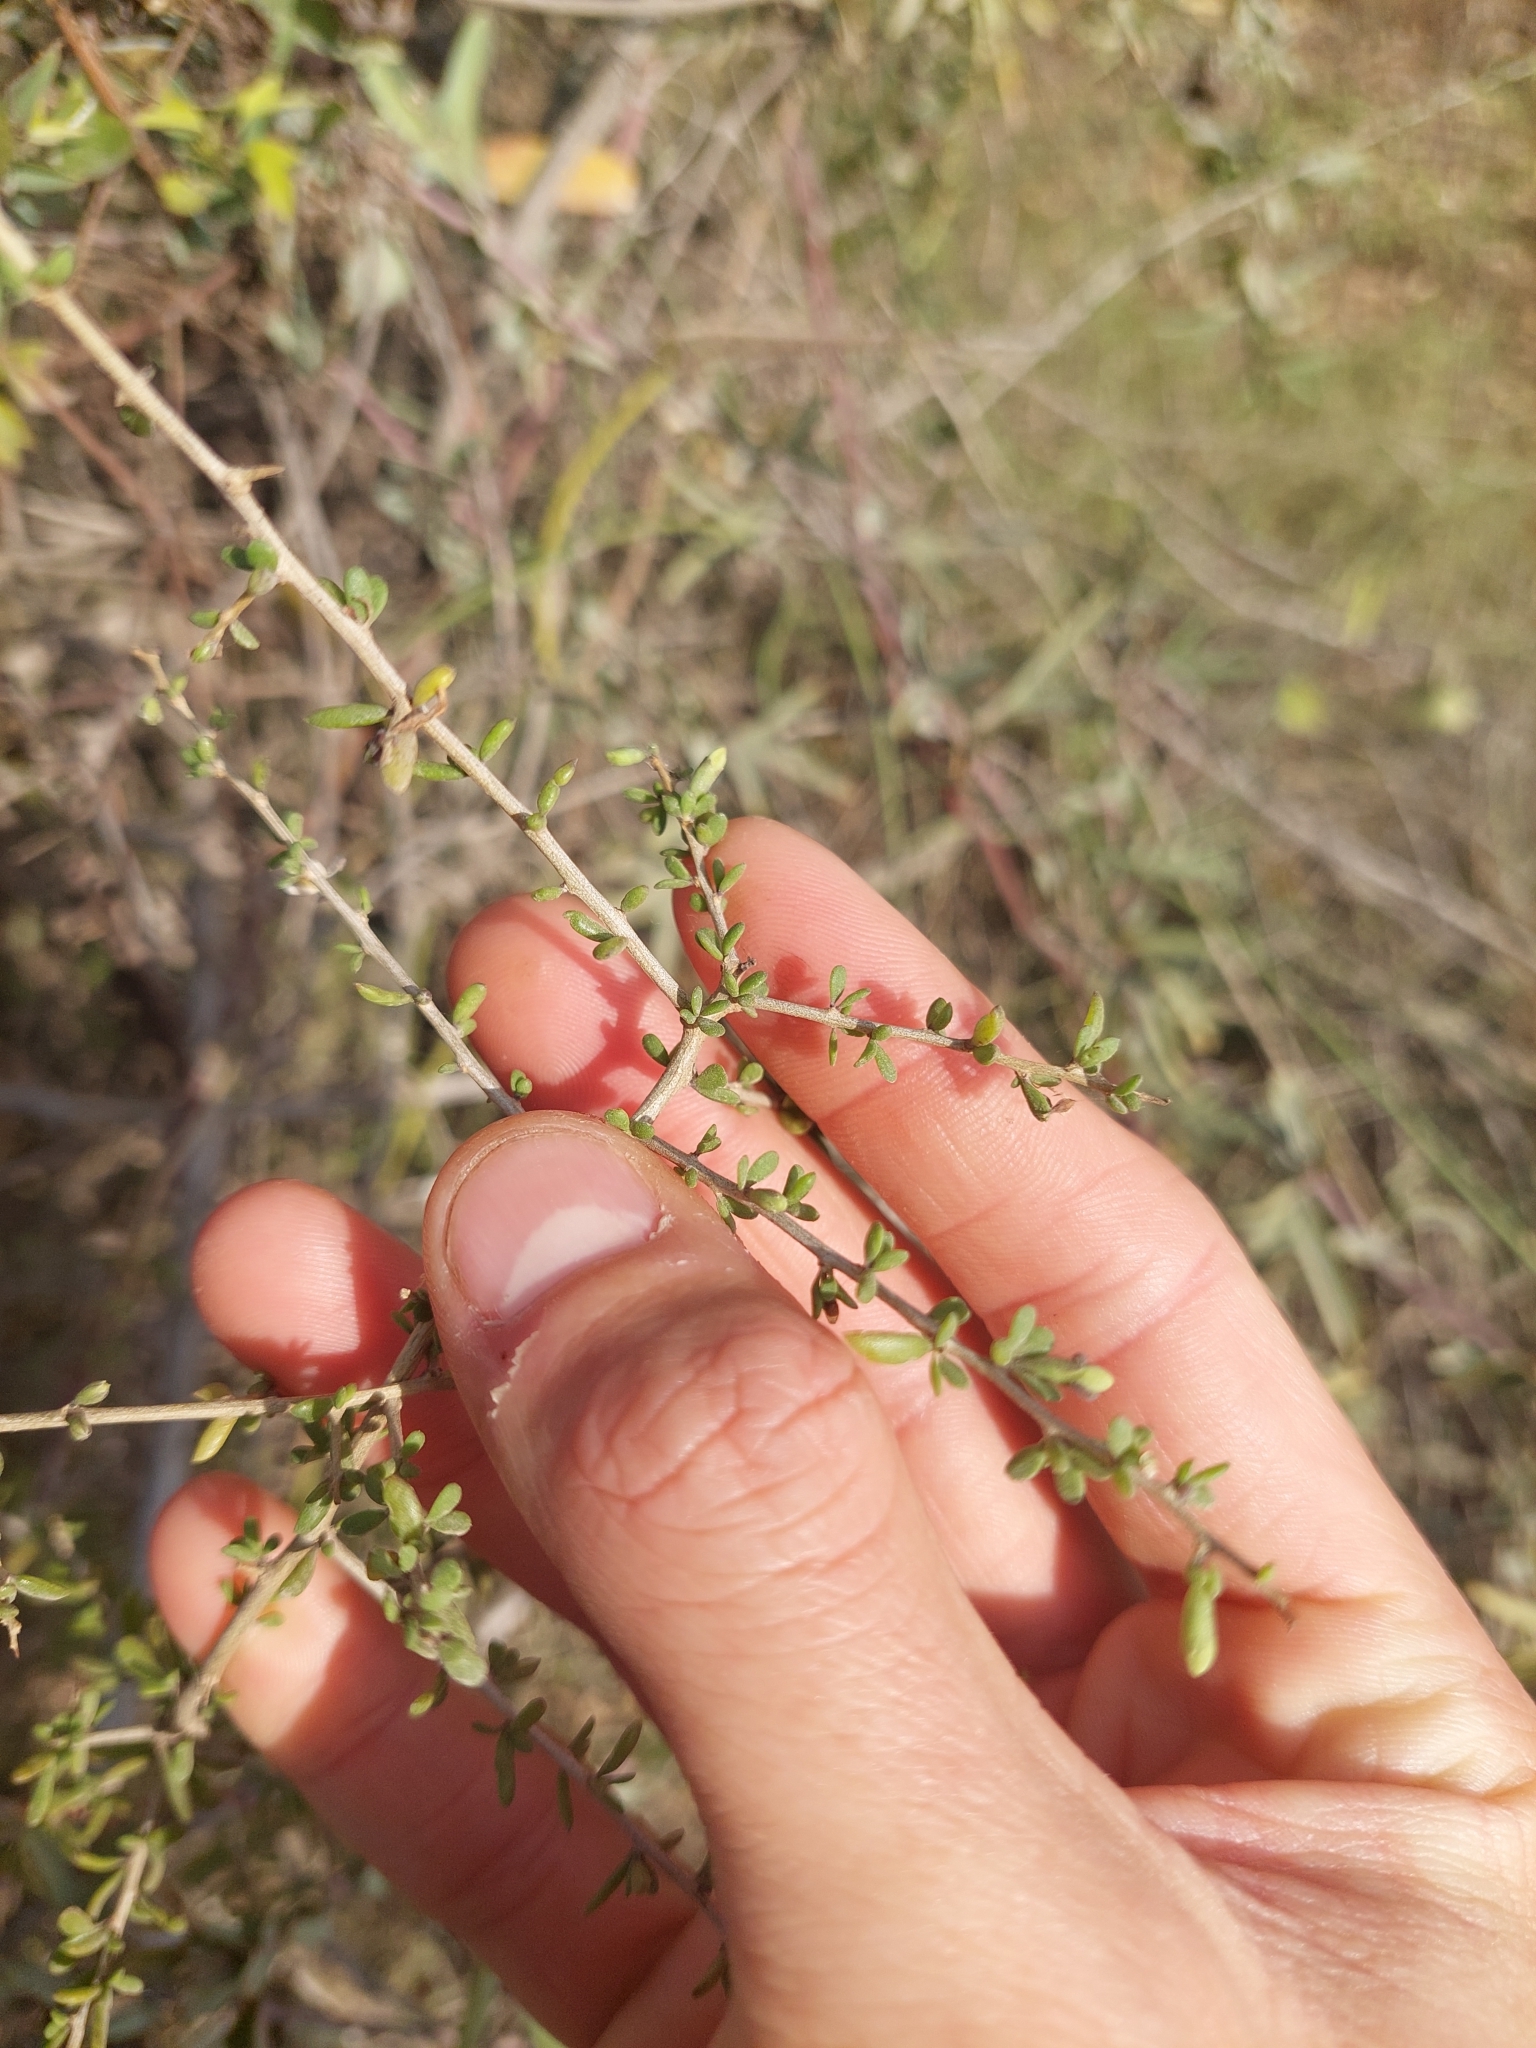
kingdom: Plantae
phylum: Tracheophyta
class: Magnoliopsida
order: Solanales
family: Solanaceae
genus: Lycium
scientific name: Lycium infaustum
